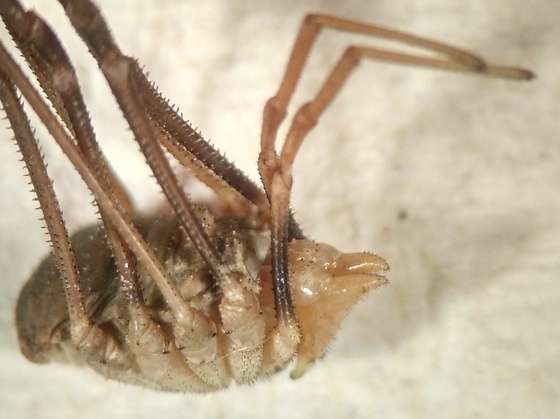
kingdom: Animalia
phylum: Arthropoda
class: Arachnida
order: Opiliones
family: Phalangiidae
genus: Phalangium
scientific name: Phalangium opilio
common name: Daddy longleg
